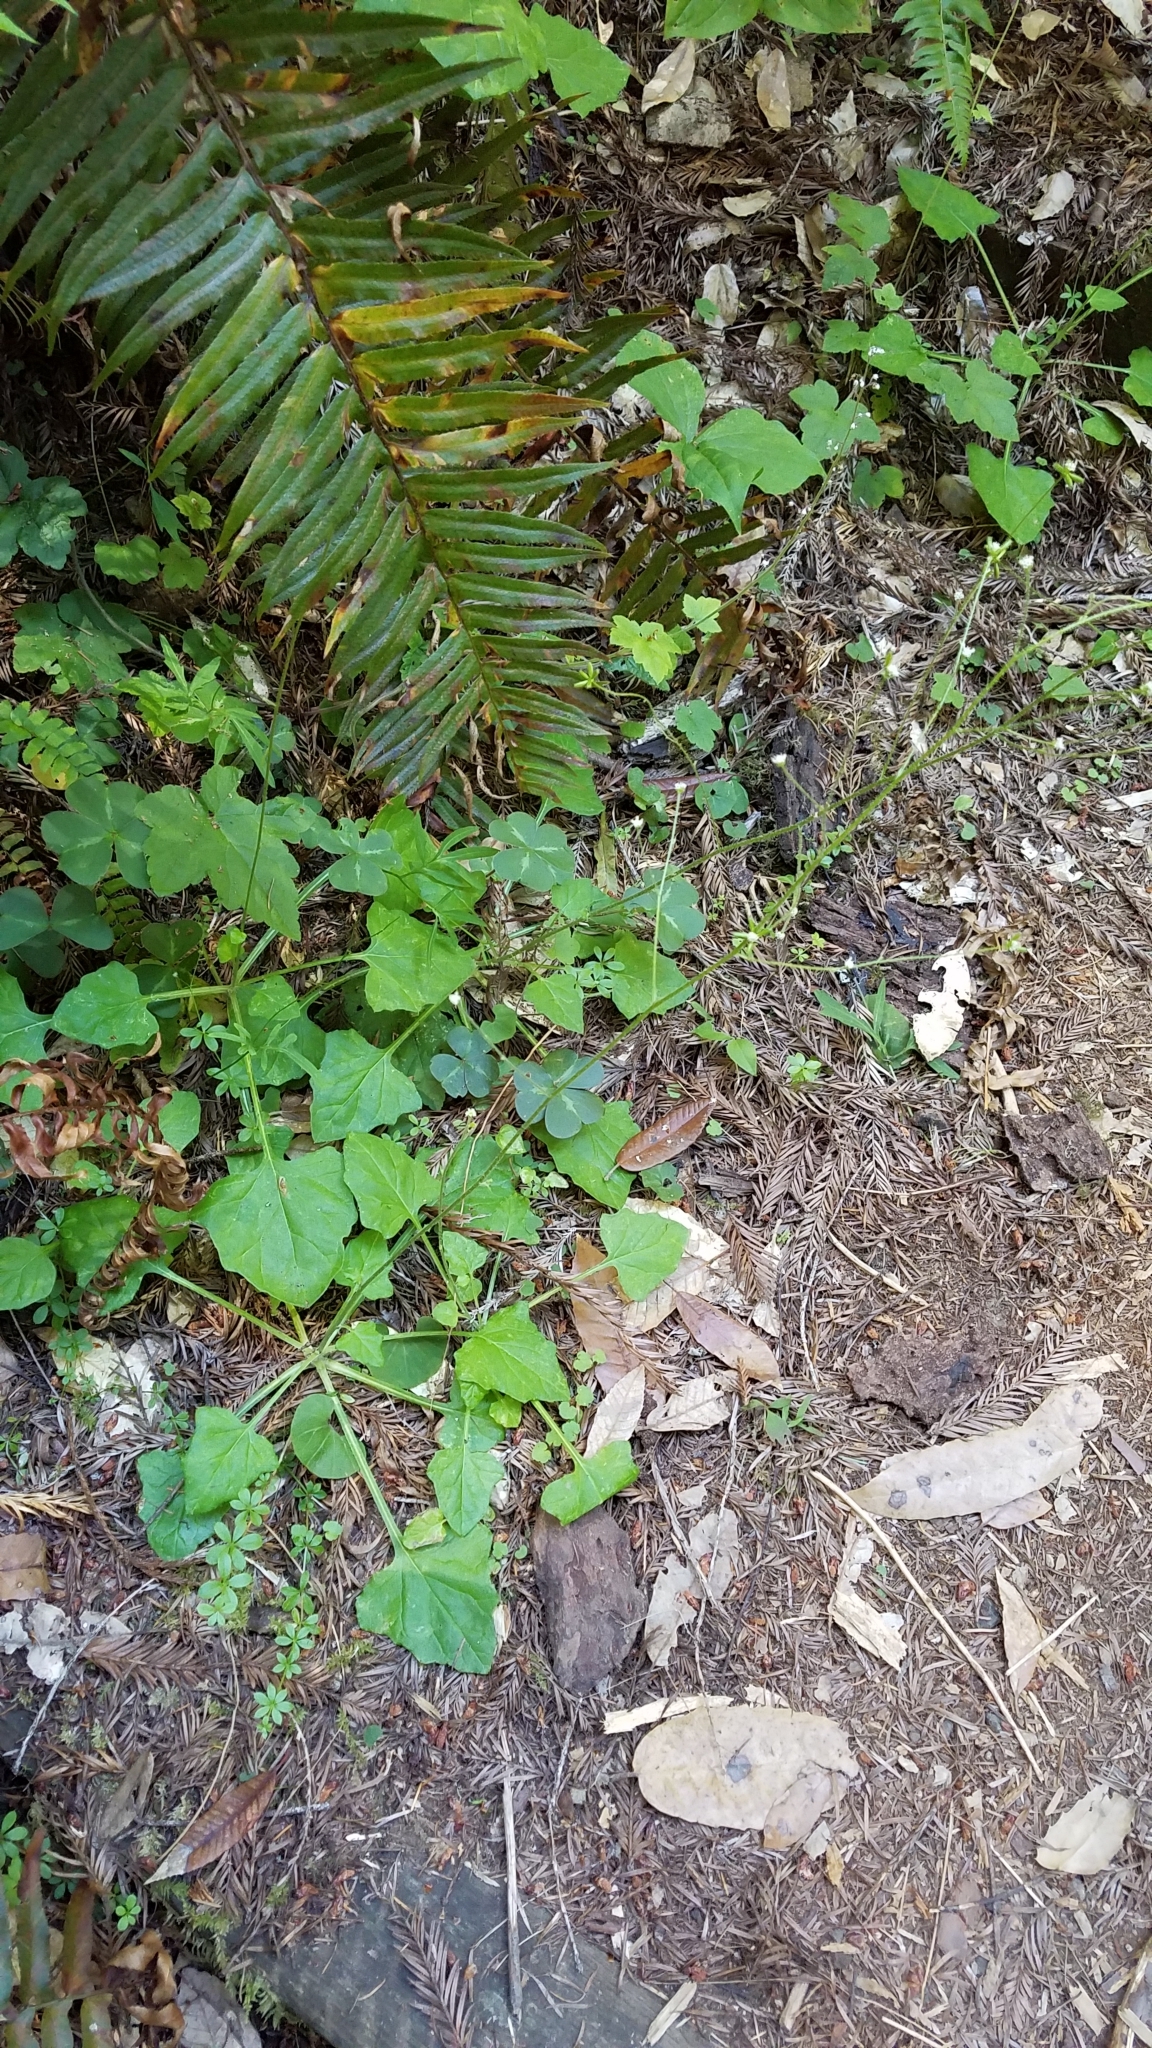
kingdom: Plantae
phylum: Tracheophyta
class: Magnoliopsida
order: Asterales
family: Asteraceae
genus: Adenocaulon
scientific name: Adenocaulon bicolor
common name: Trailplant
